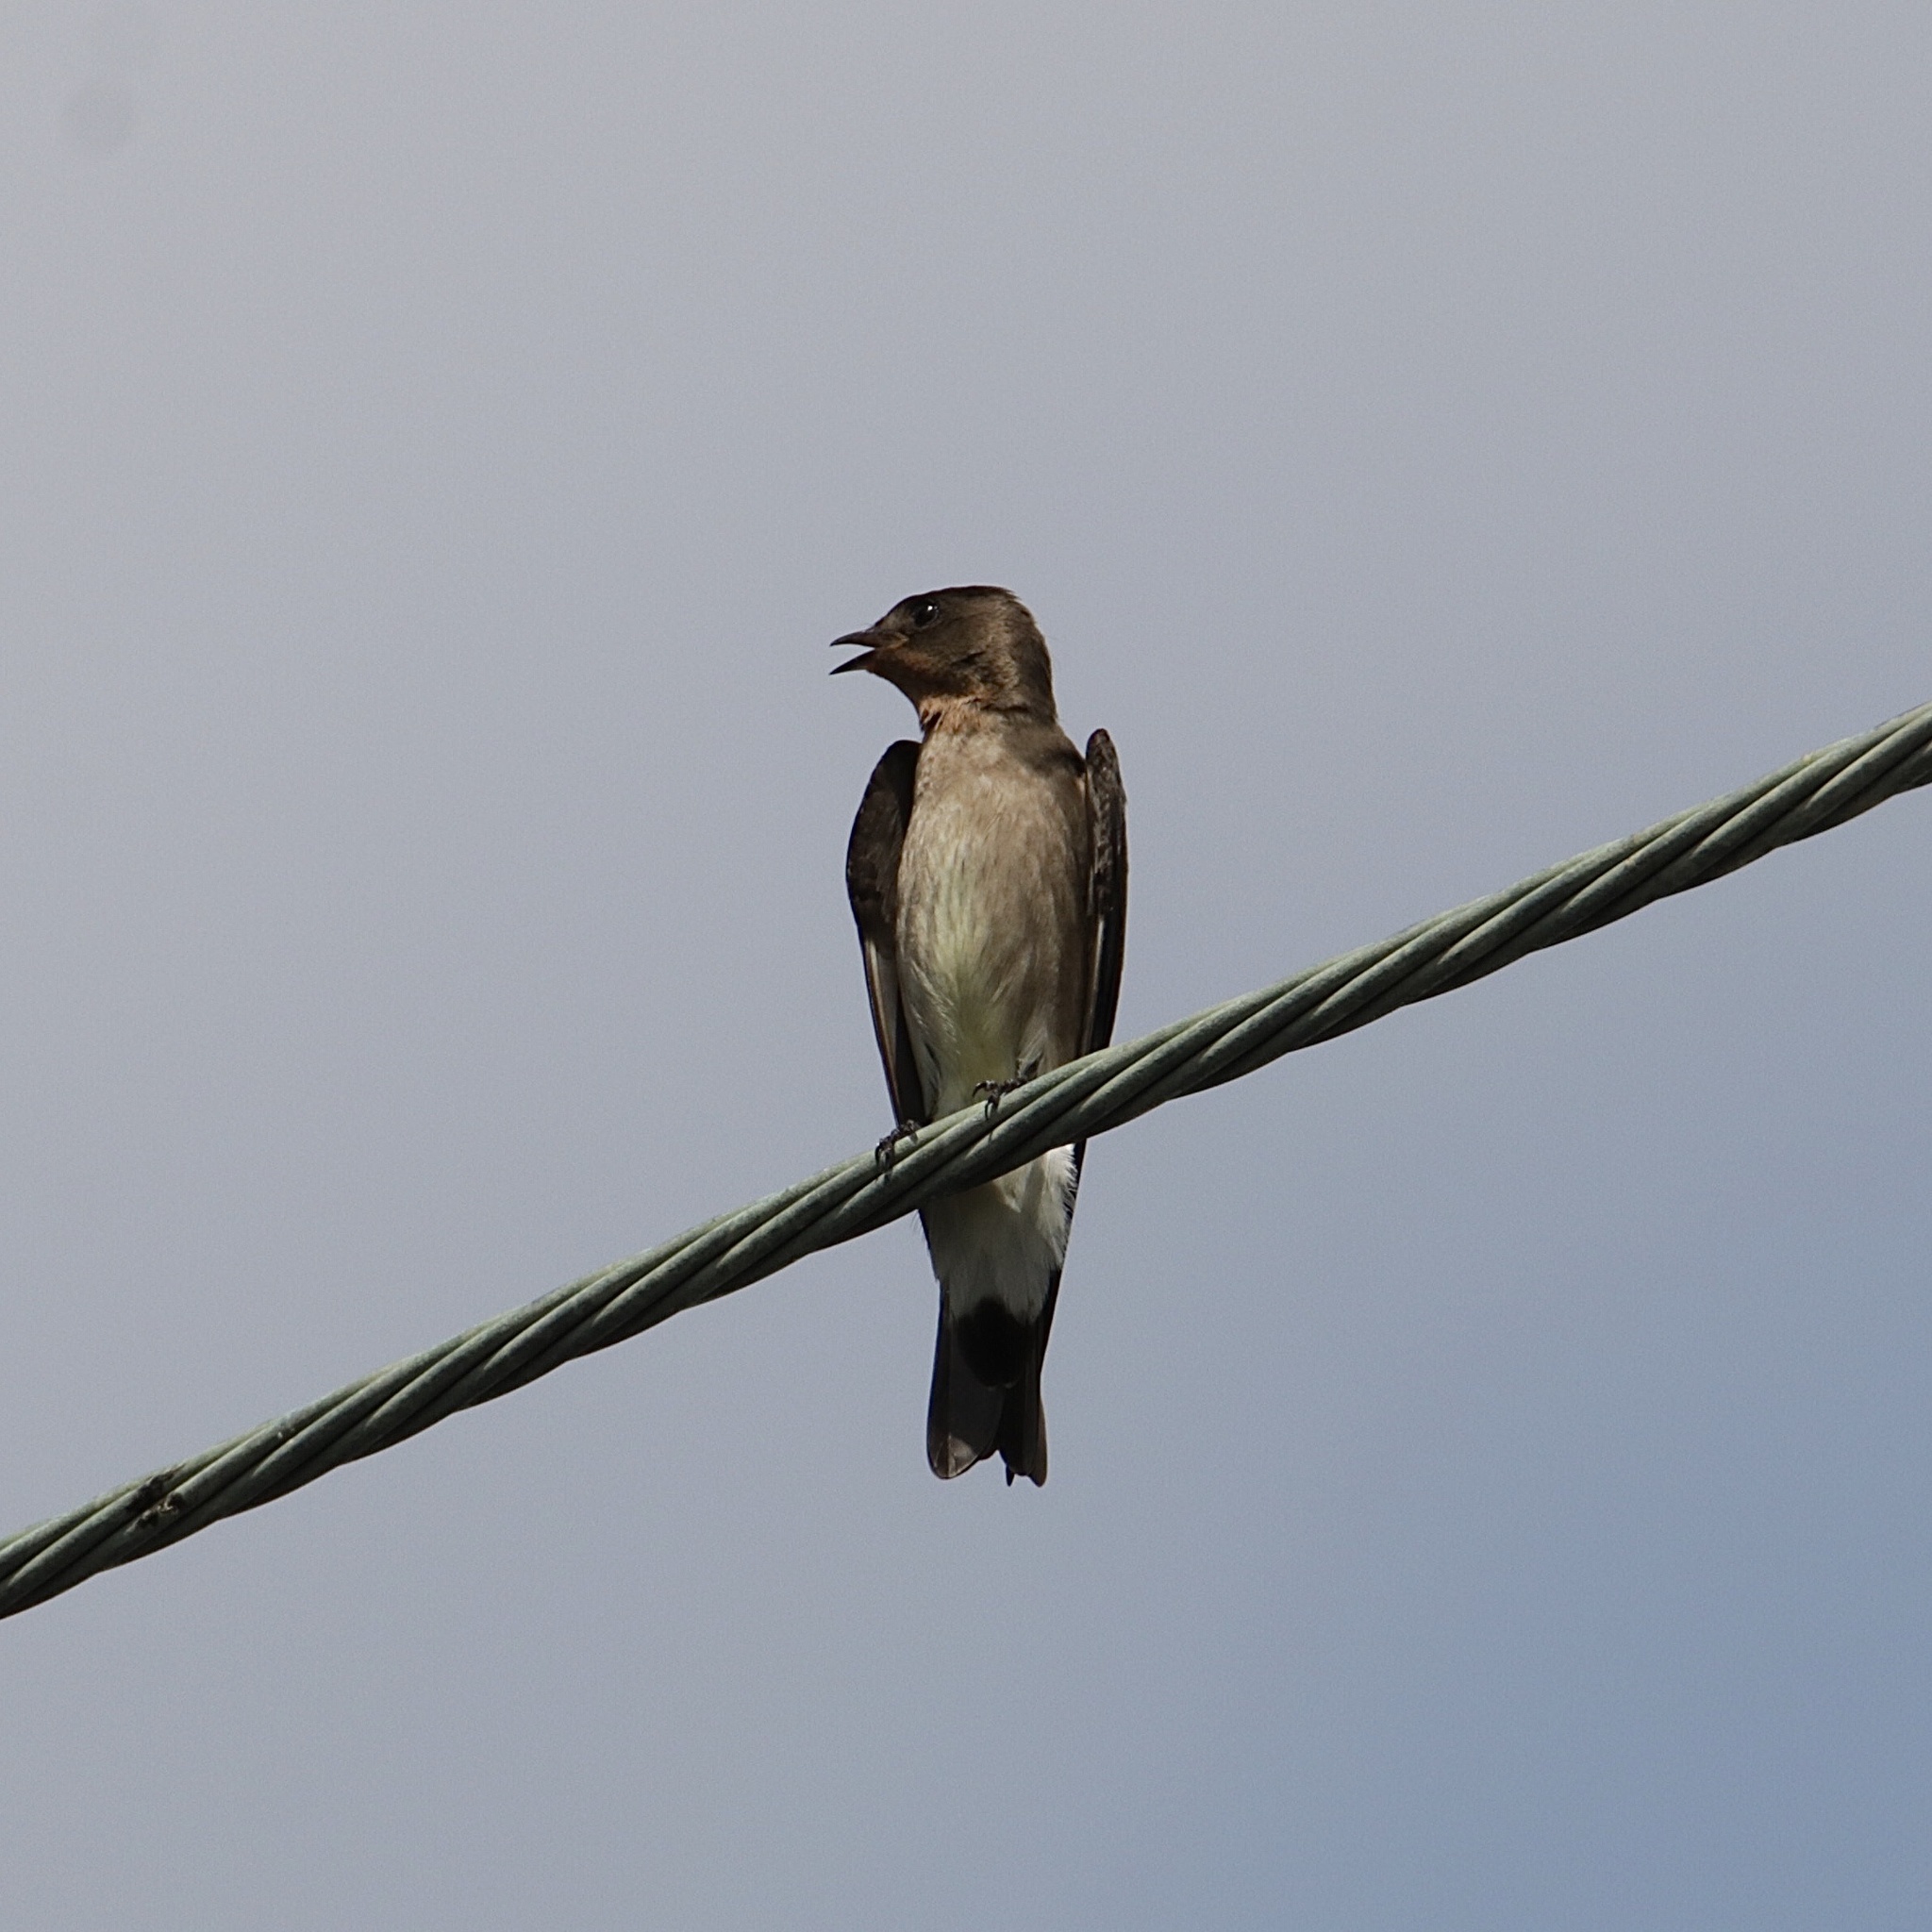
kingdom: Animalia
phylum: Chordata
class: Aves
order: Passeriformes
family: Hirundinidae
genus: Stelgidopteryx
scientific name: Stelgidopteryx ruficollis
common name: Southern rough-winged swallow
